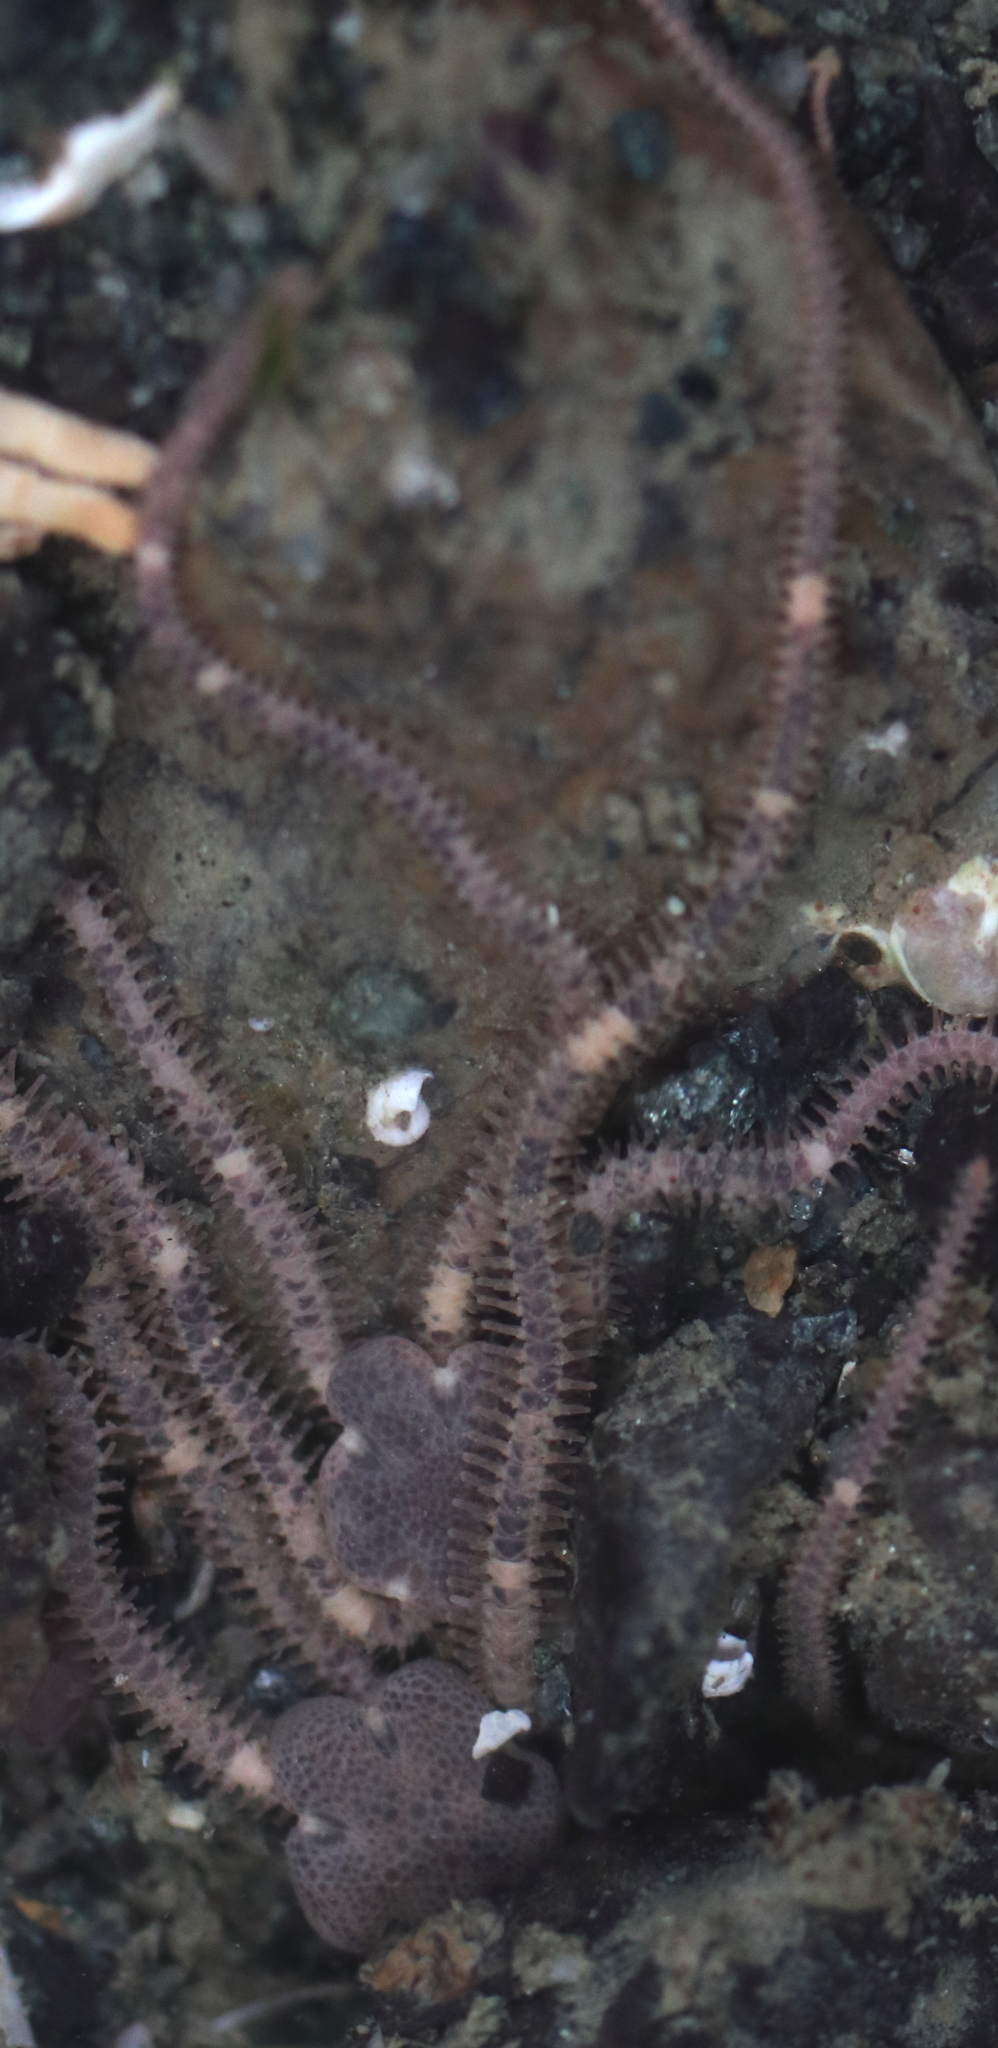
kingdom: Animalia
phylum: Echinodermata
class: Ophiuroidea
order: Amphilepidida
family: Amphiuridae
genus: Amphiodia
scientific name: Amphiodia occidentalis
